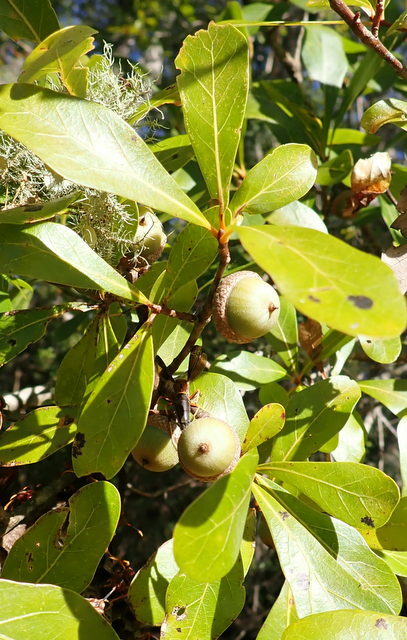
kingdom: Plantae
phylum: Tracheophyta
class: Magnoliopsida
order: Fagales
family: Fagaceae
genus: Quercus
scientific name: Quercus laurifolia
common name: Swamp laurel oak
